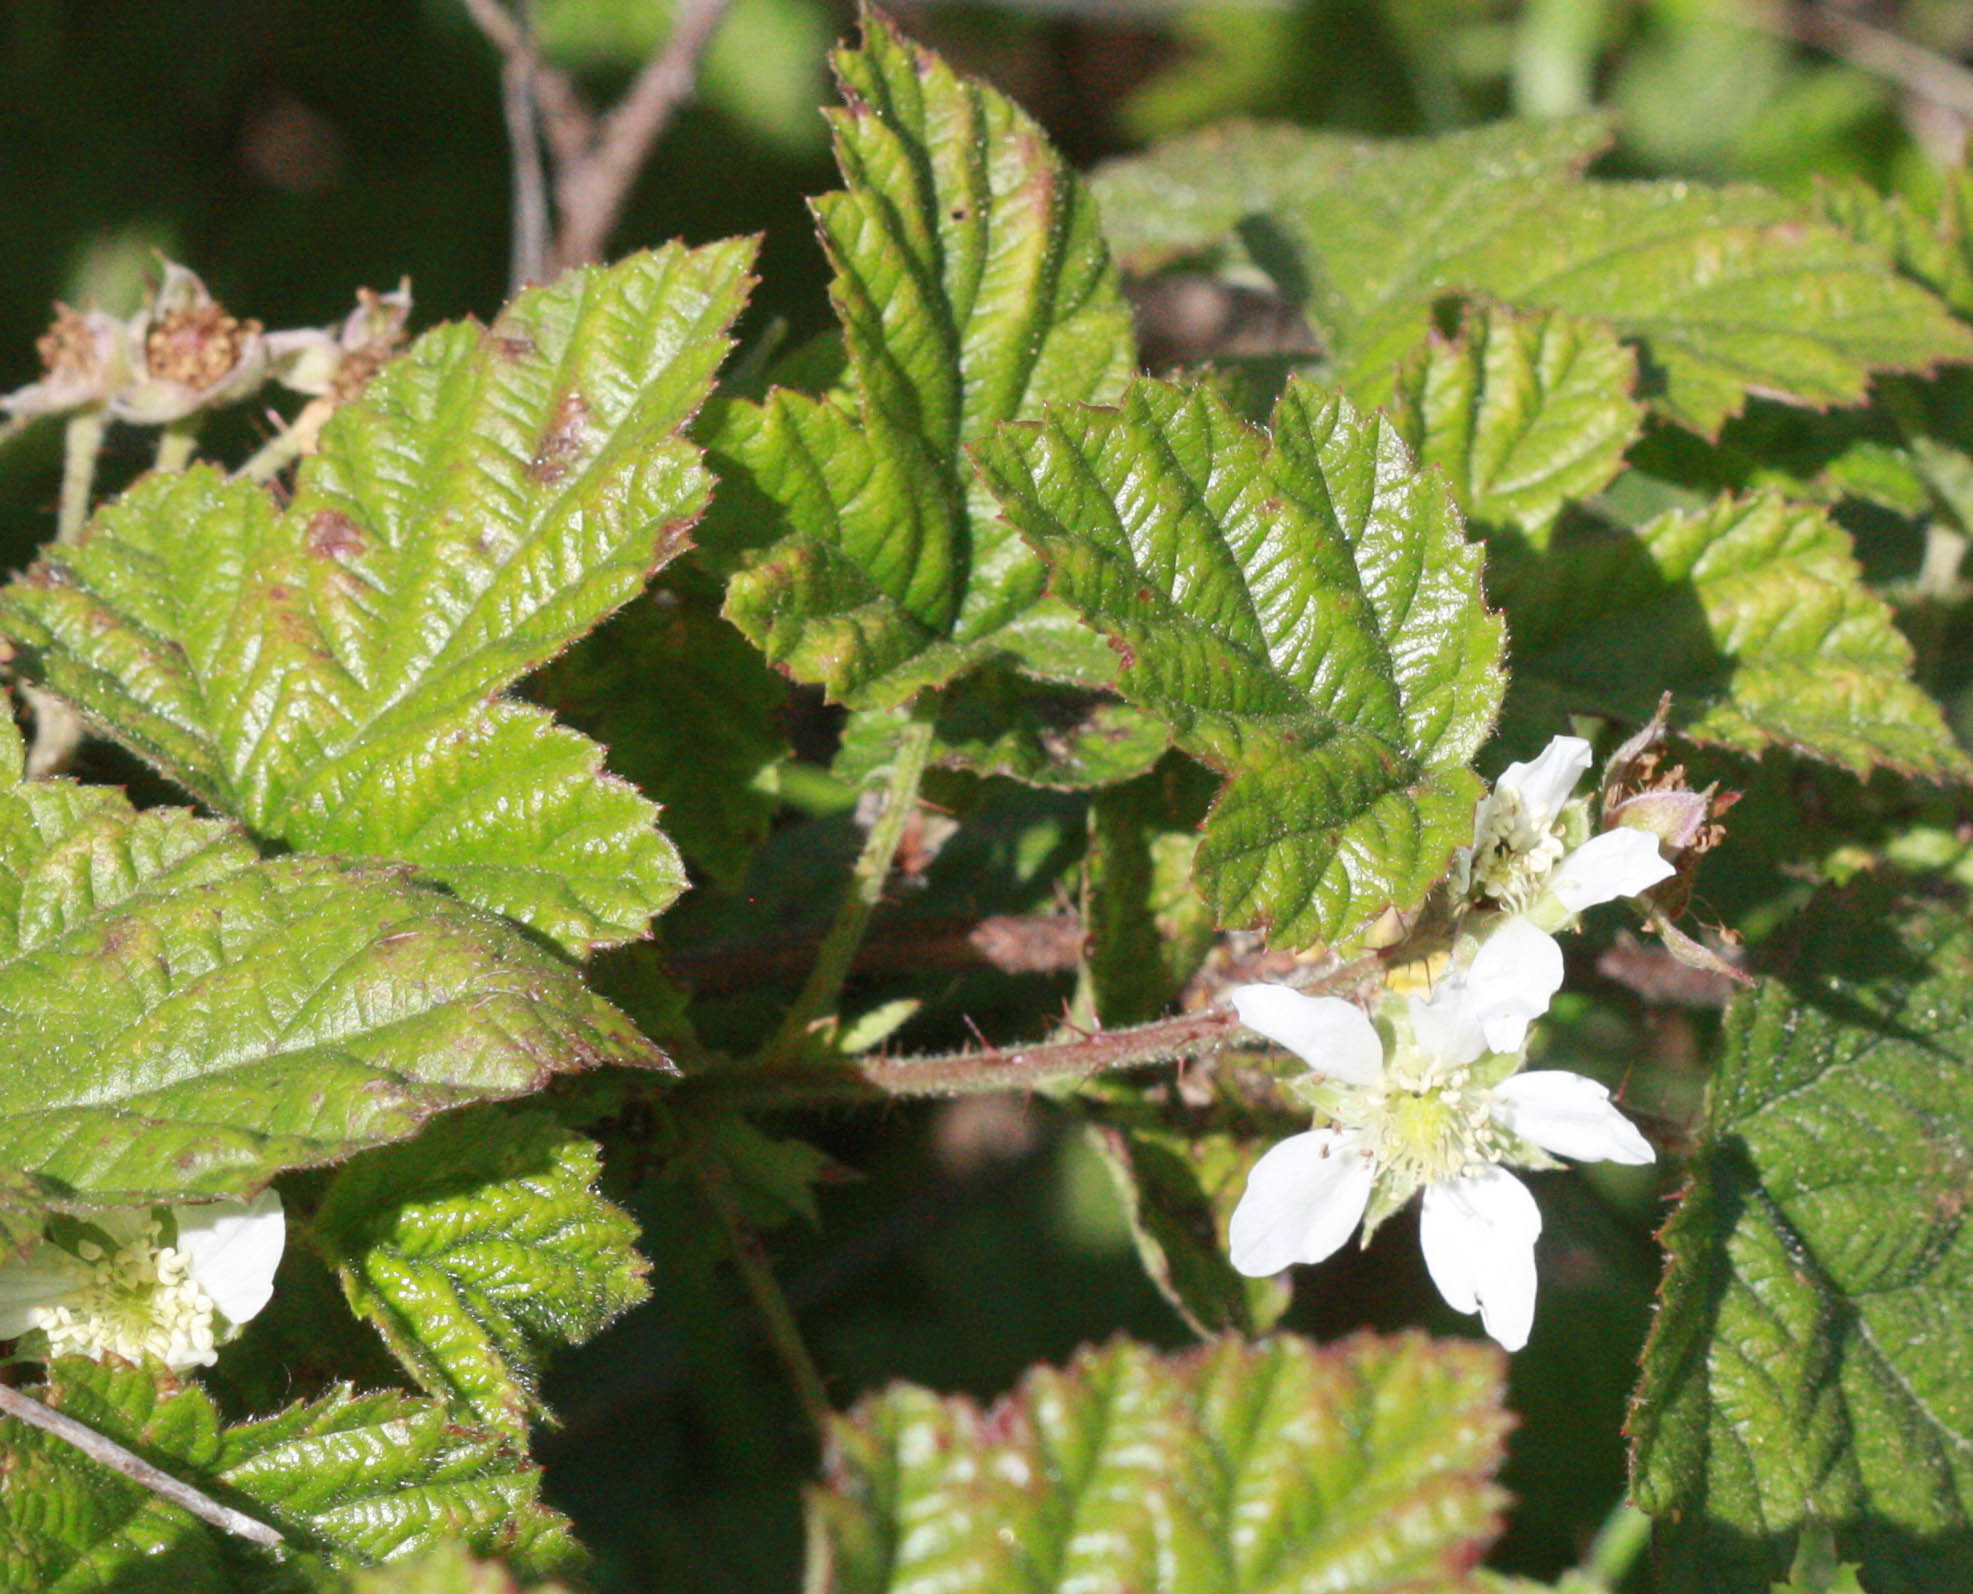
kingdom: Plantae
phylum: Tracheophyta
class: Magnoliopsida
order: Rosales
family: Rosaceae
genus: Rubus
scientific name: Rubus ursinus
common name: Pacific blackberry
